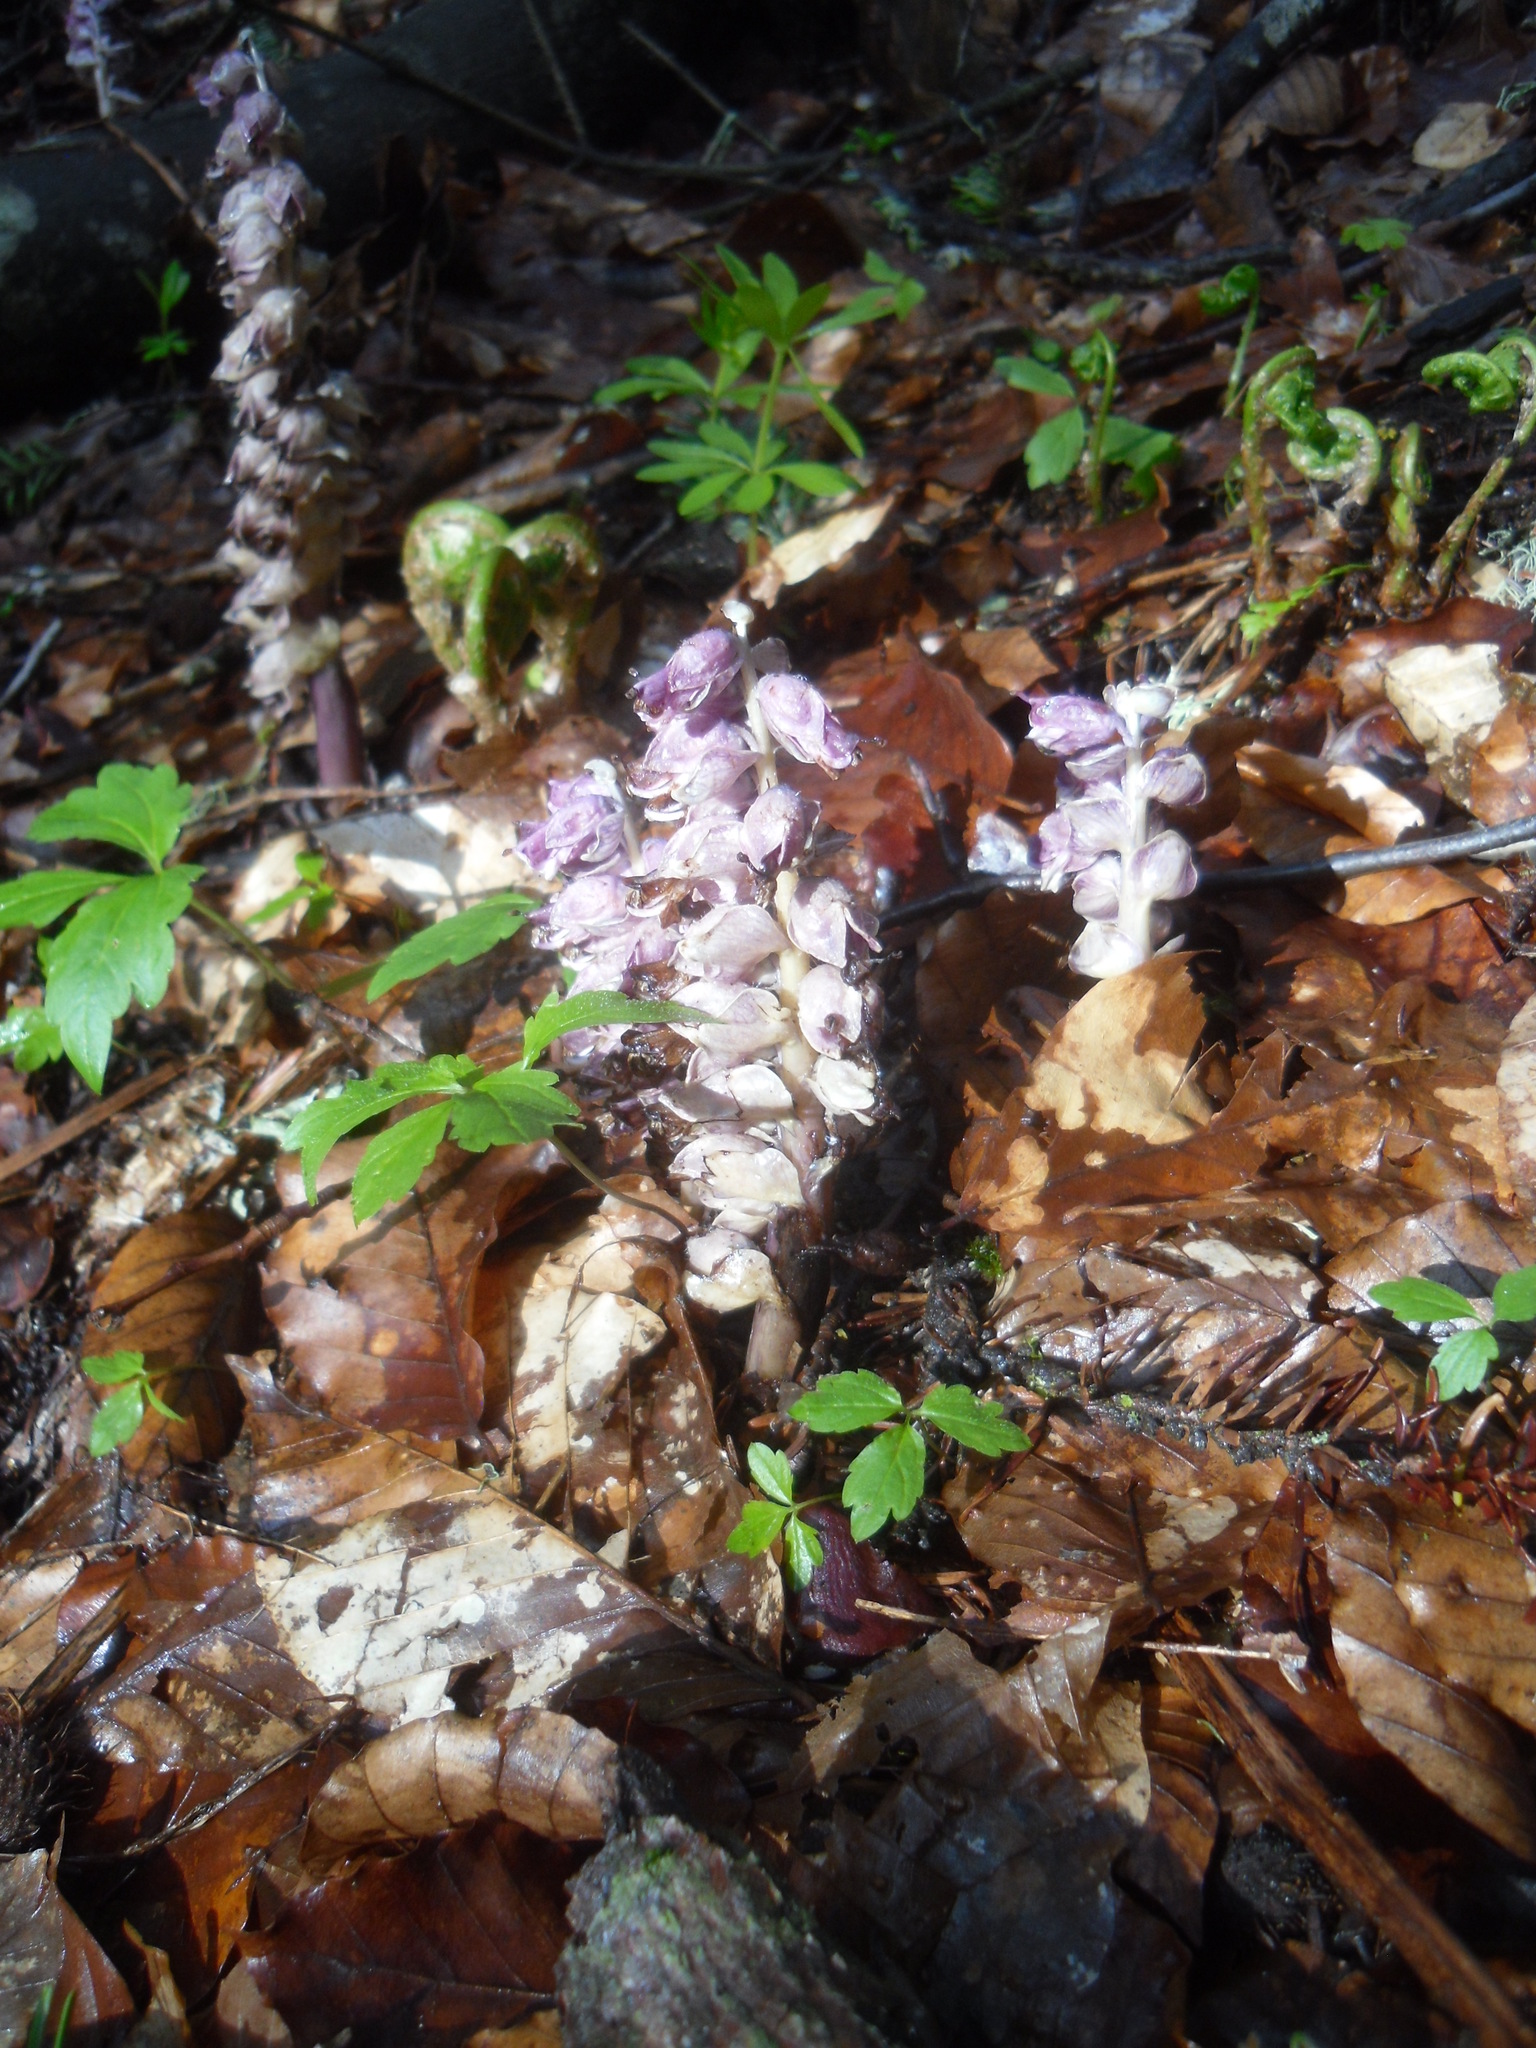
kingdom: Plantae
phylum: Tracheophyta
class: Magnoliopsida
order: Lamiales
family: Orobanchaceae
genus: Lathraea
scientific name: Lathraea squamaria
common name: Toothwort
